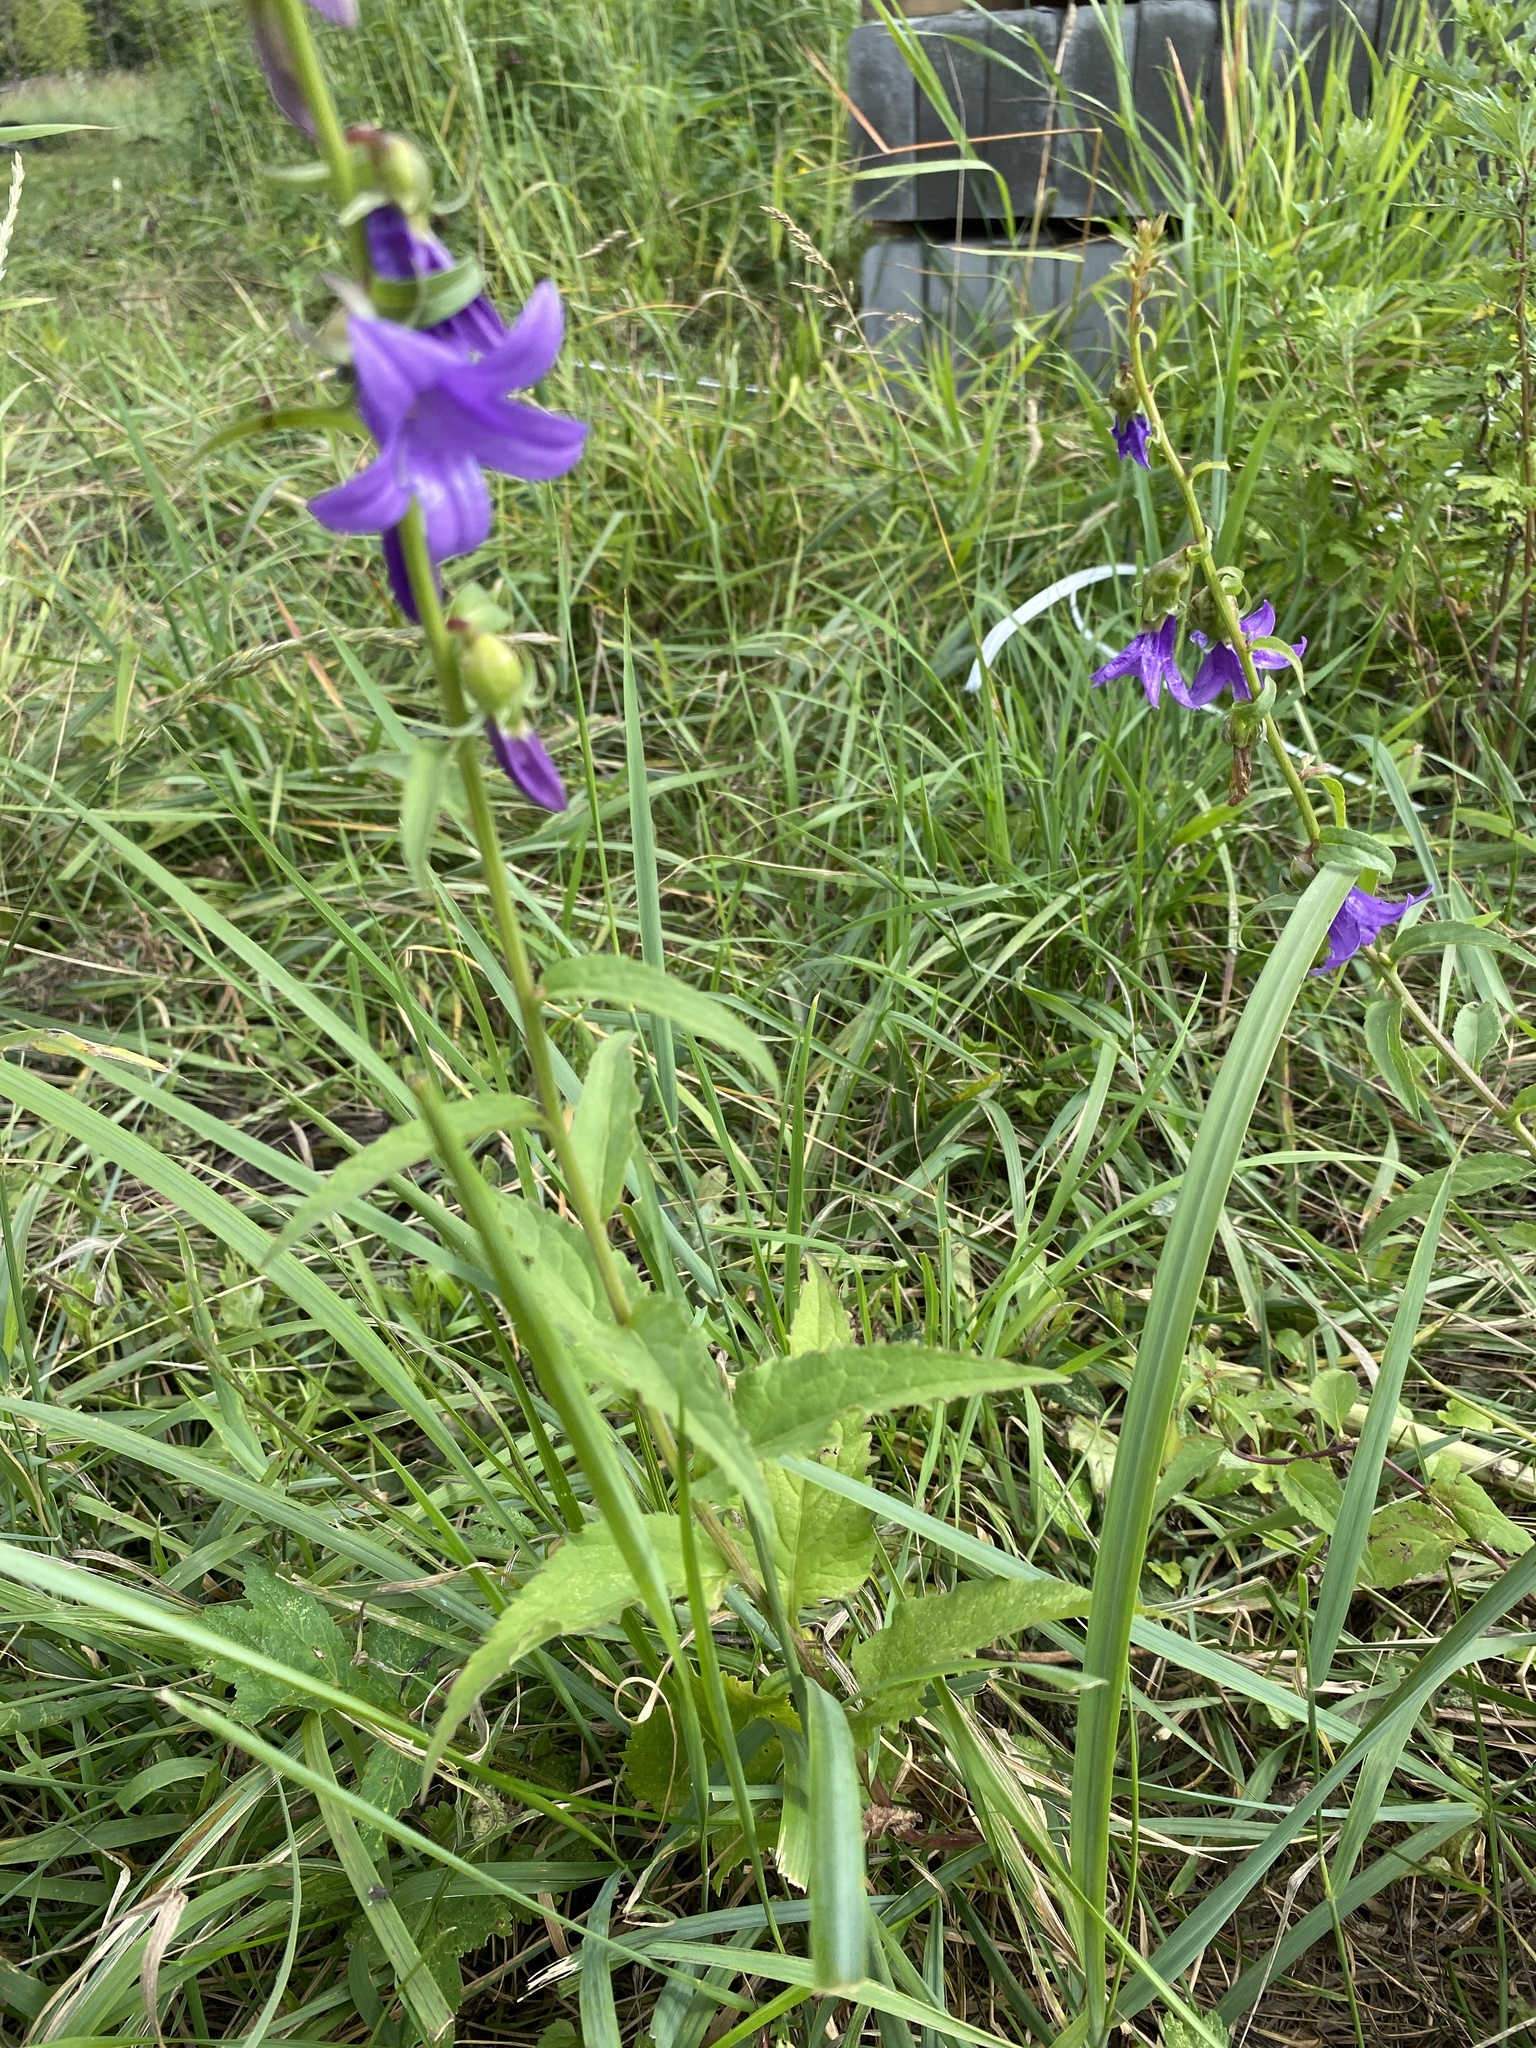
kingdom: Plantae
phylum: Tracheophyta
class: Magnoliopsida
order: Asterales
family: Campanulaceae
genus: Campanula
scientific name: Campanula rapunculoides
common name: Creeping bellflower
